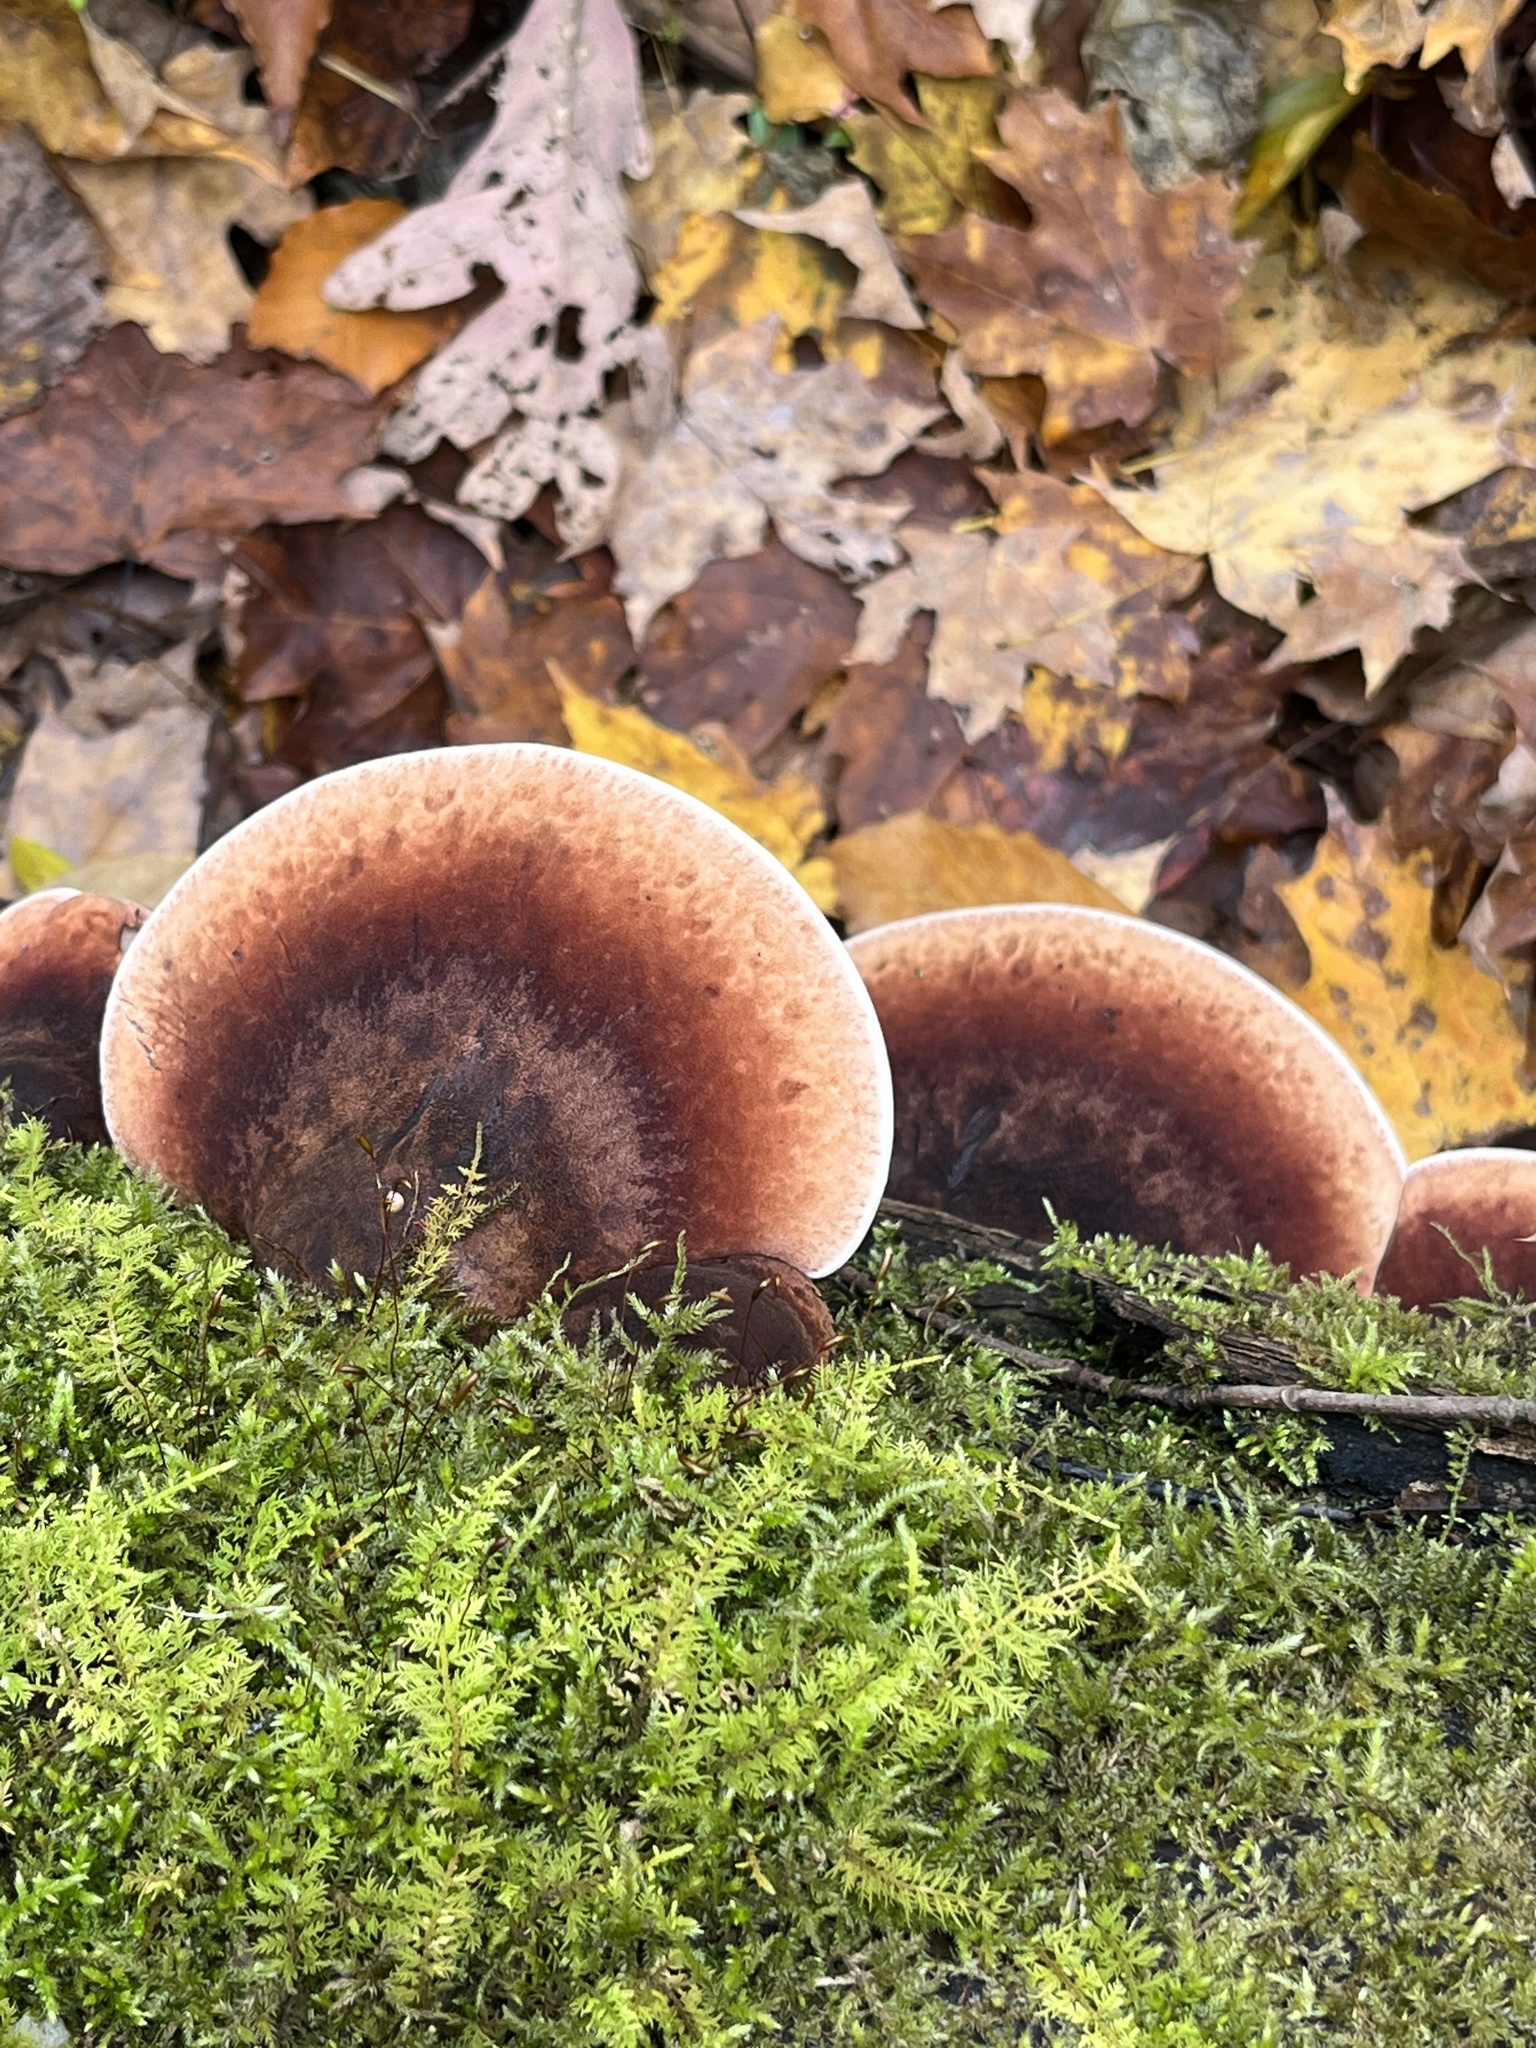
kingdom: Fungi
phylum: Basidiomycota
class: Agaricomycetes
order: Polyporales
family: Ischnodermataceae
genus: Ischnoderma
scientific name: Ischnoderma resinosum
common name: Resinous polypore
